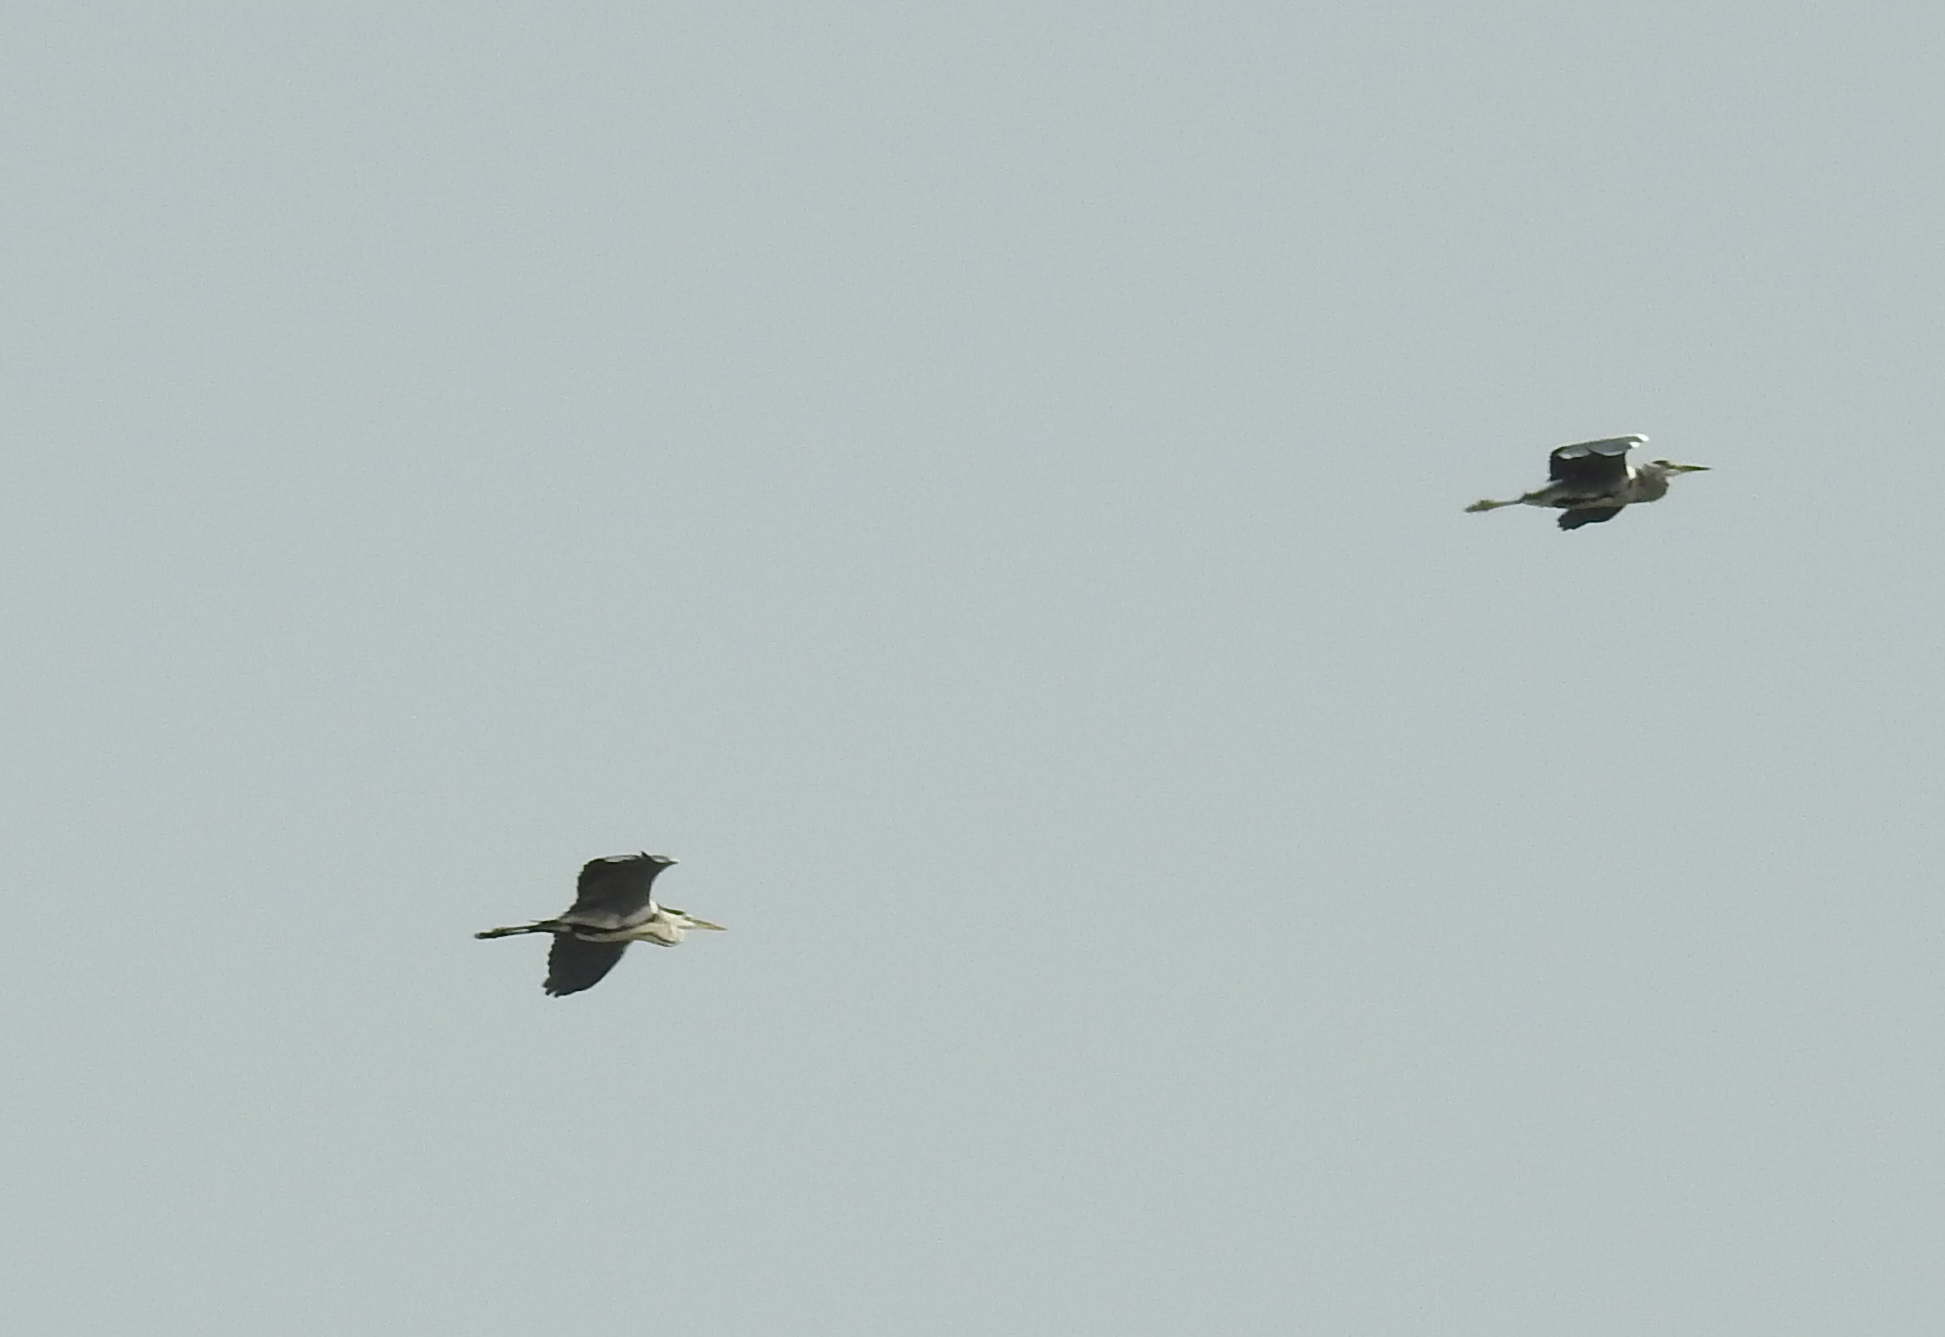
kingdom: Animalia
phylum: Chordata
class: Aves
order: Pelecaniformes
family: Ardeidae
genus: Ardea
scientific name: Ardea cinerea
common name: Grey heron
